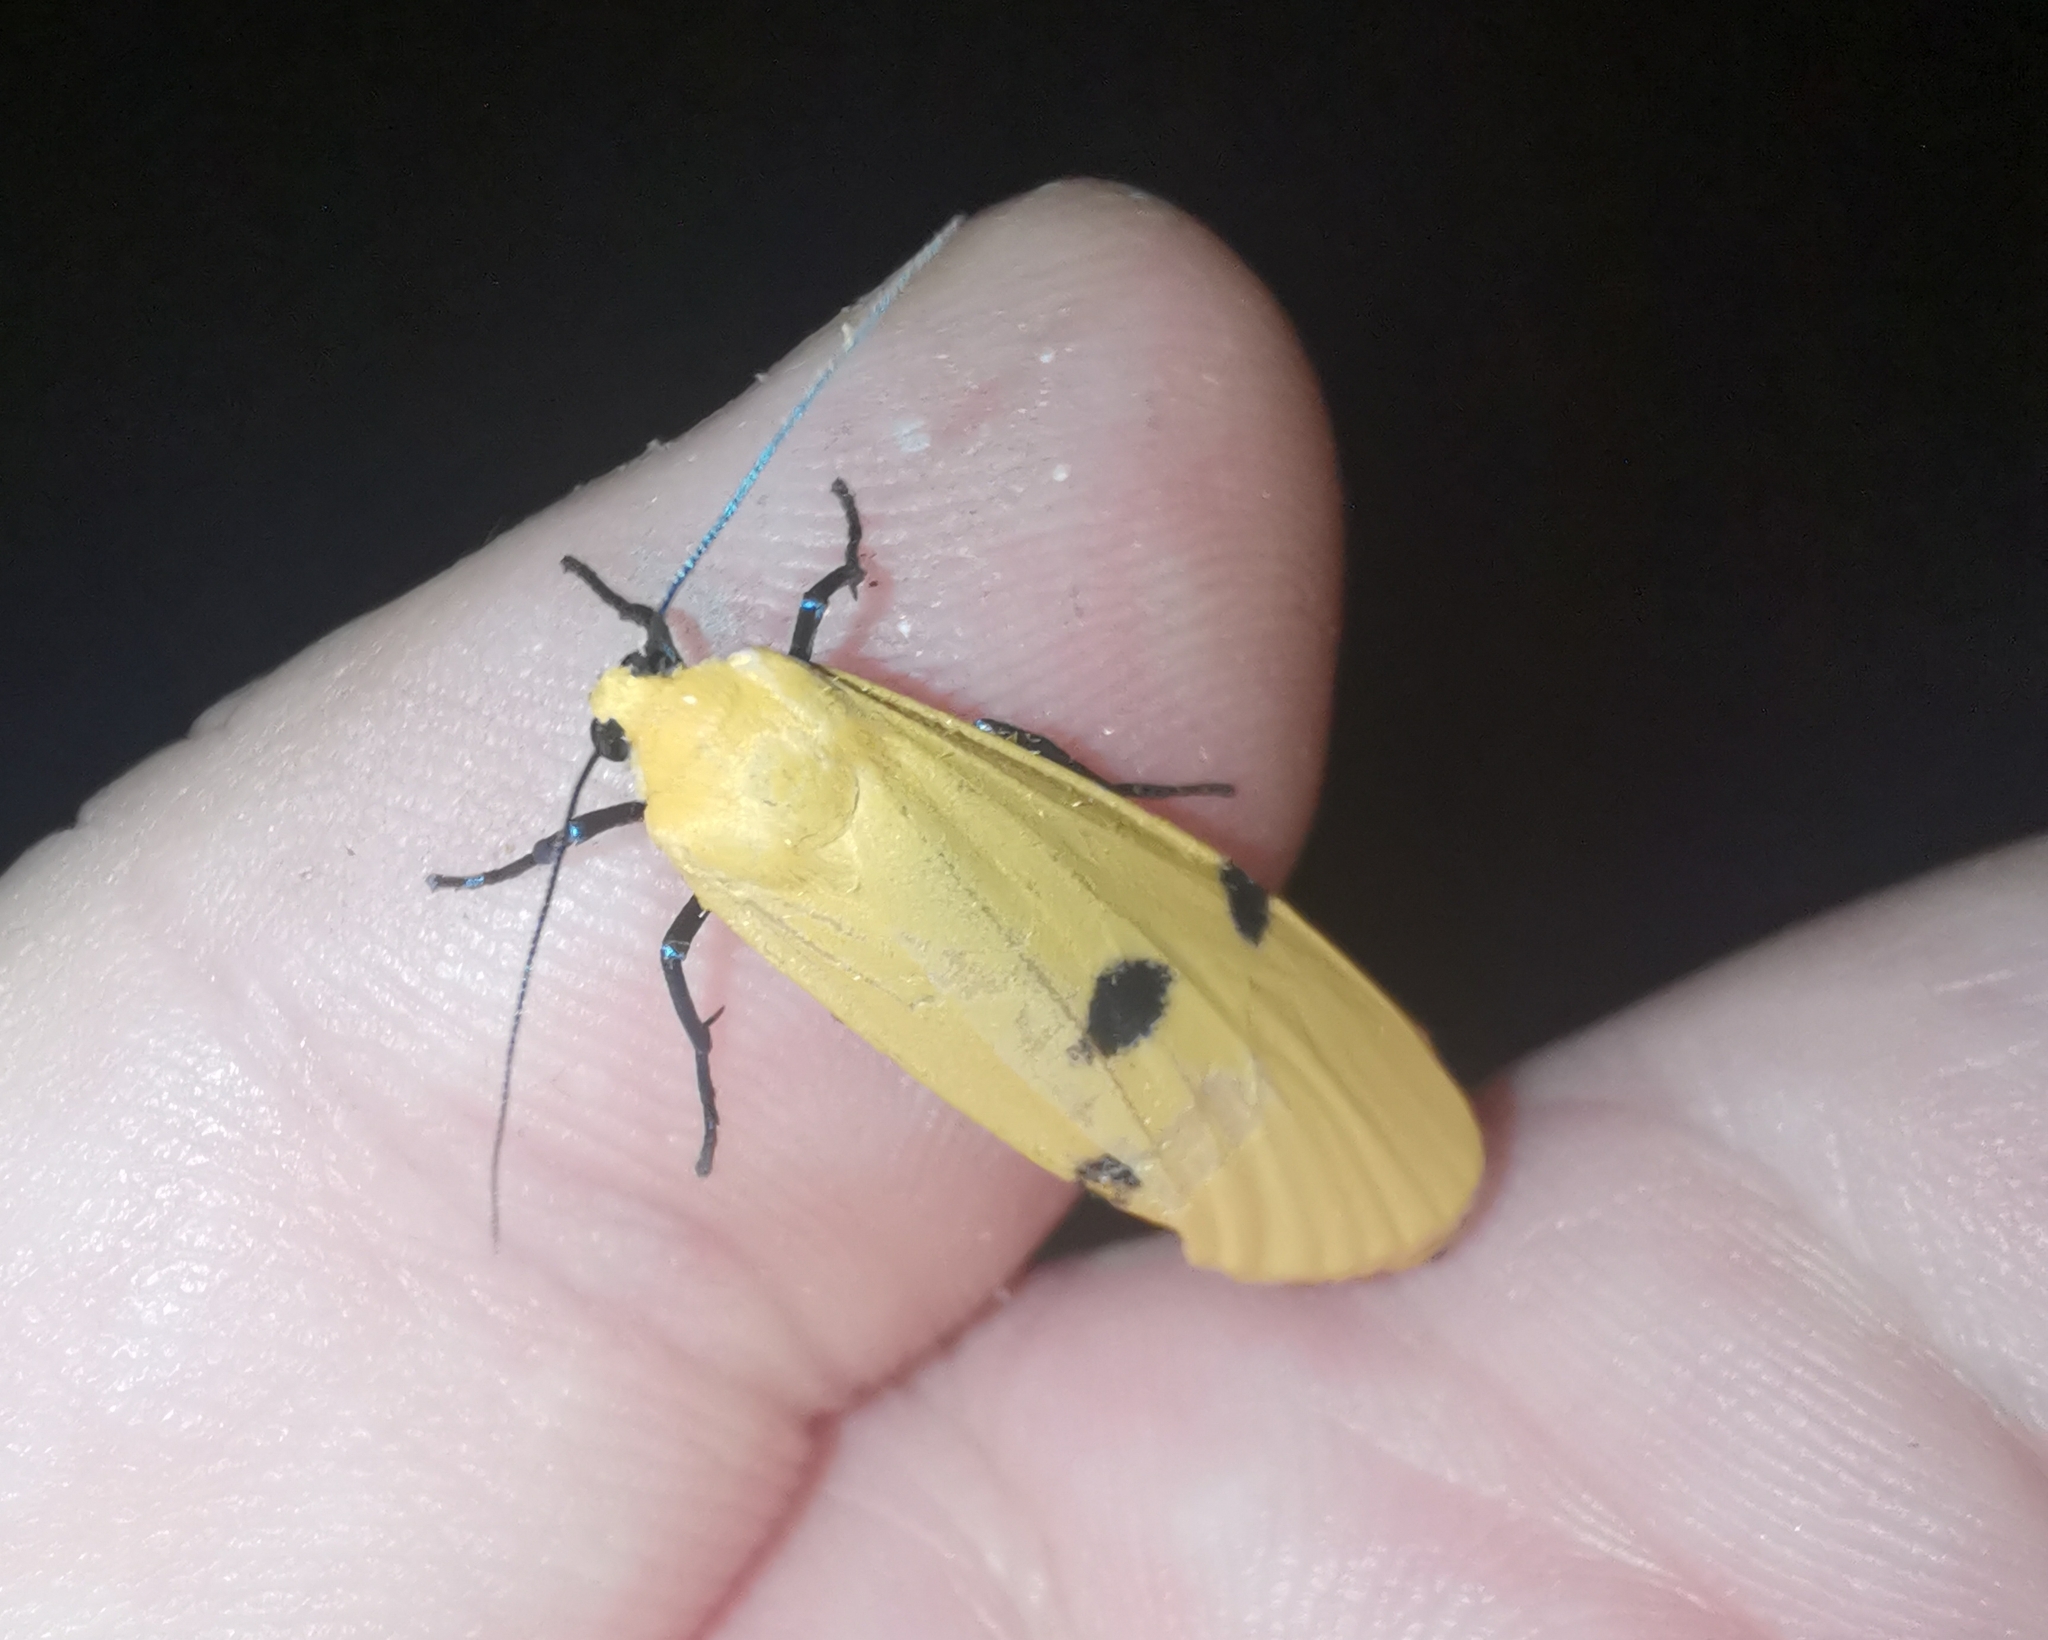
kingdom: Animalia
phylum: Arthropoda
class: Insecta
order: Lepidoptera
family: Erebidae
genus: Lithosia
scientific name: Lithosia quadra
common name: Four-spotted footman
